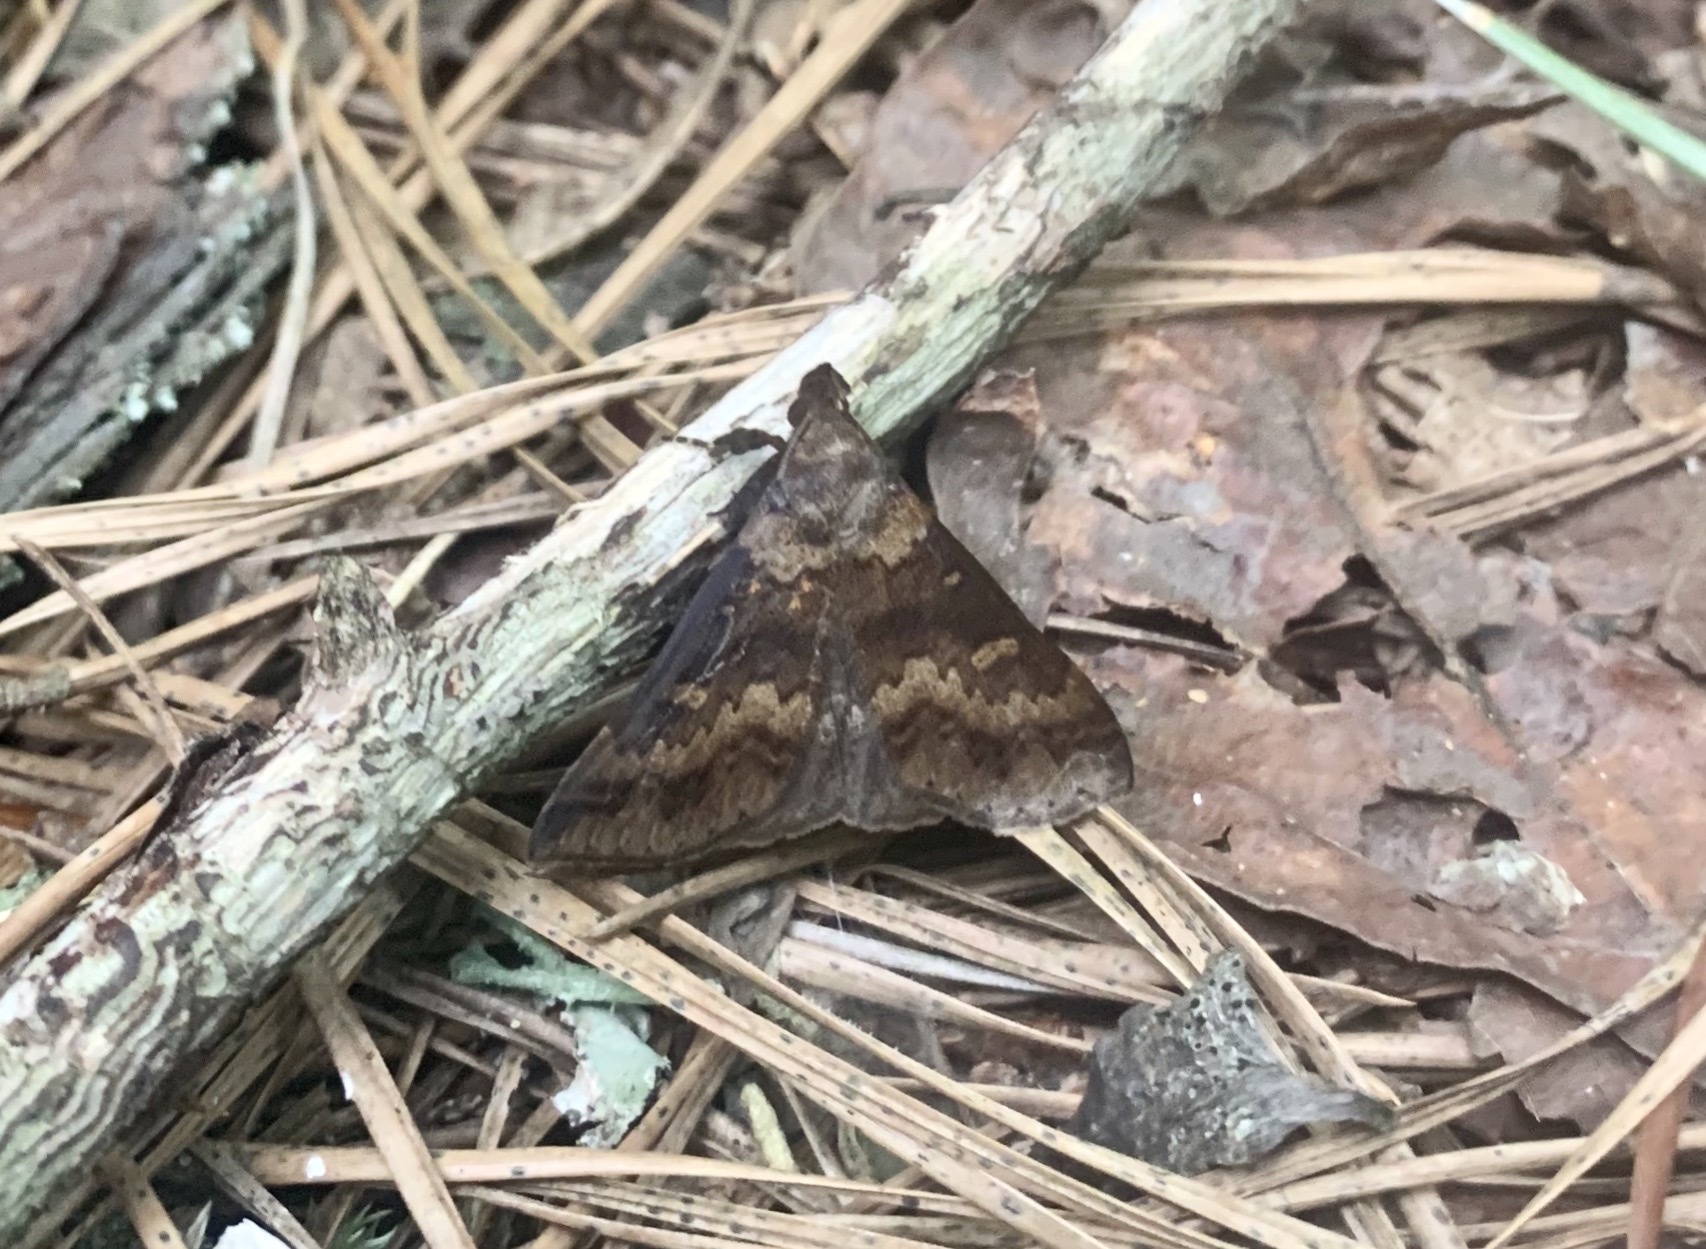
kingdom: Animalia
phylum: Arthropoda
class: Insecta
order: Lepidoptera
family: Erebidae
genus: Renia
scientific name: Renia discoloralis
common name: Discolored renia moth
